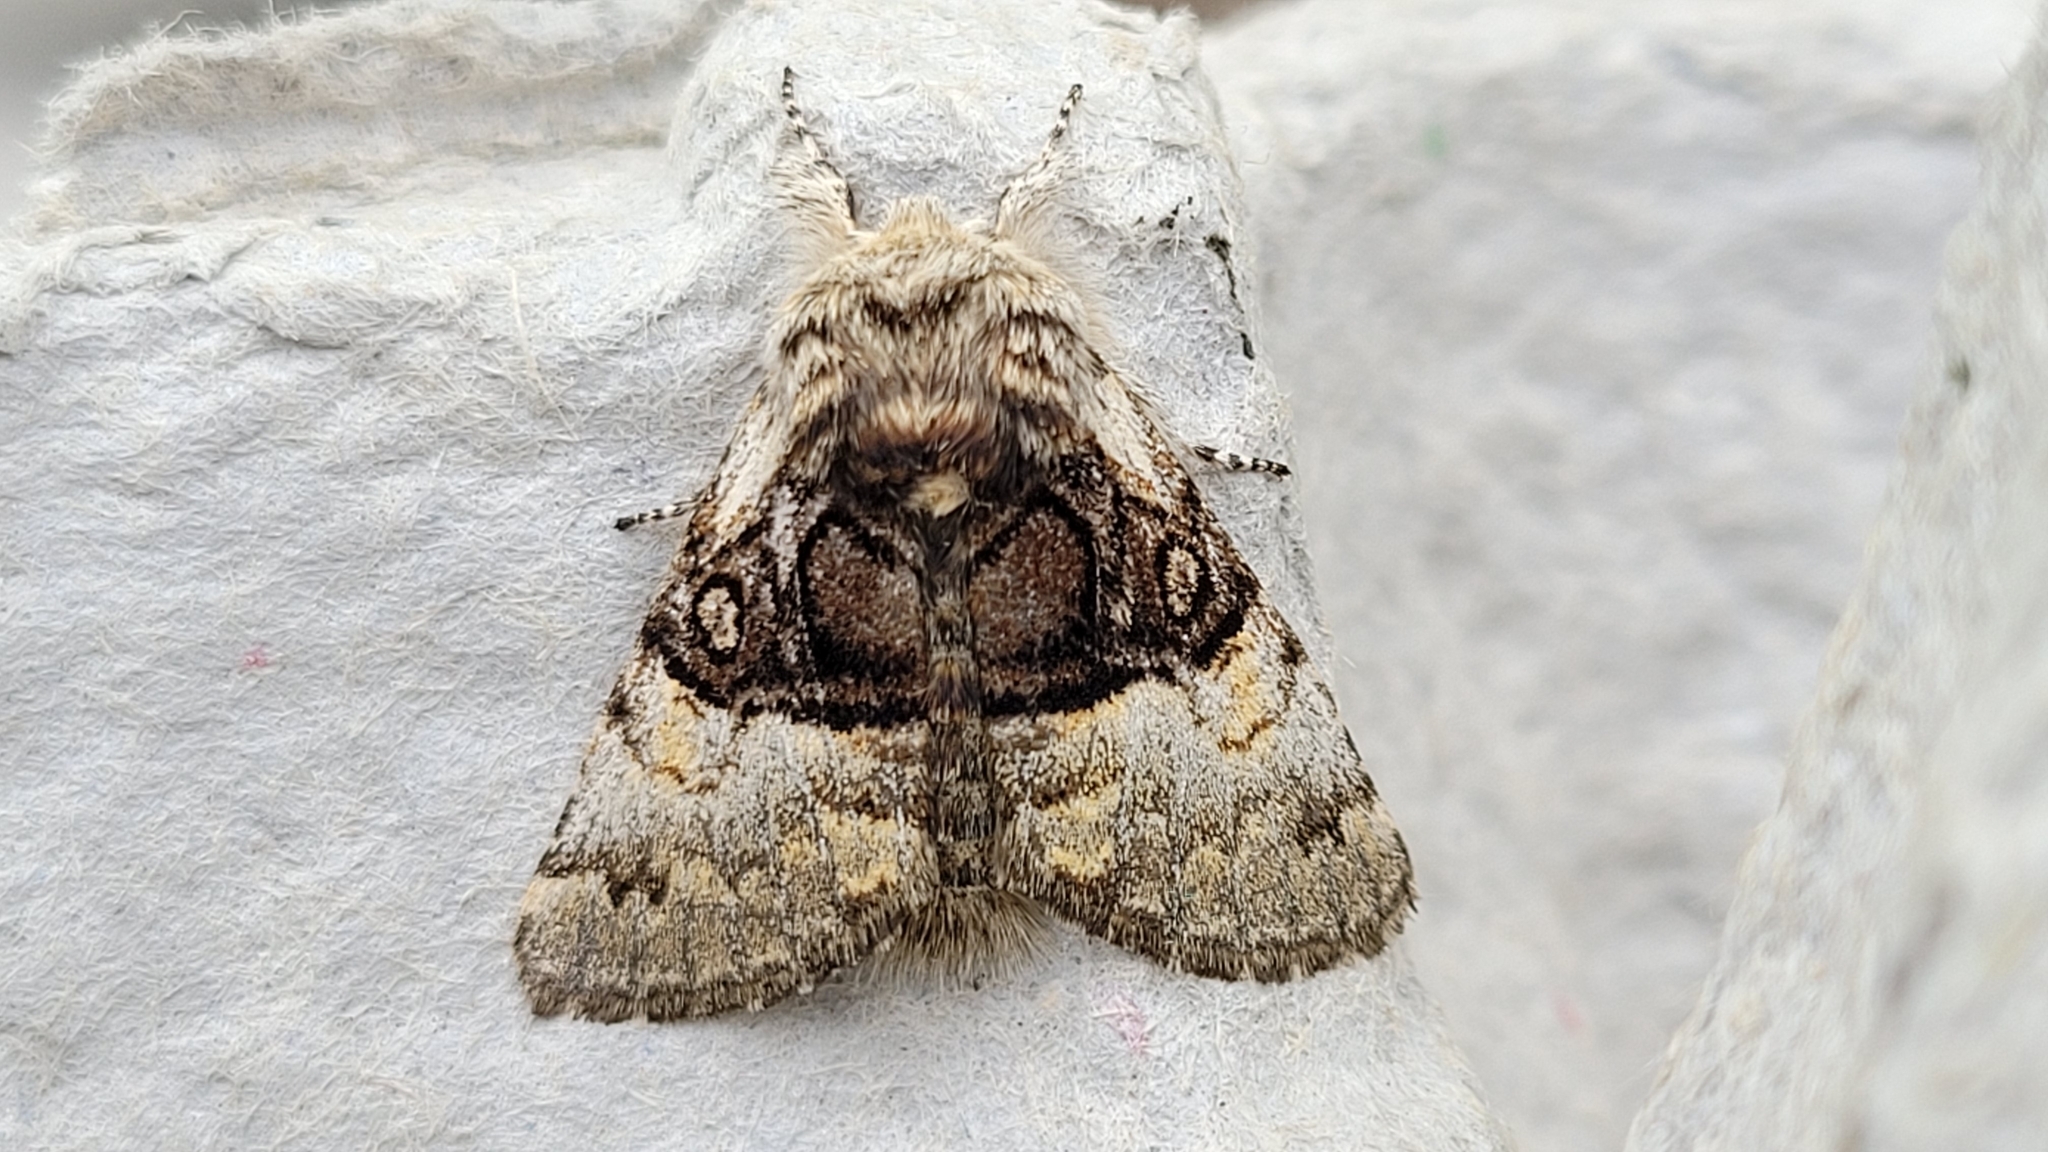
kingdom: Animalia
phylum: Arthropoda
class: Insecta
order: Lepidoptera
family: Noctuidae
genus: Colocasia
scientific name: Colocasia coryli
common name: Nut-tree tussock
